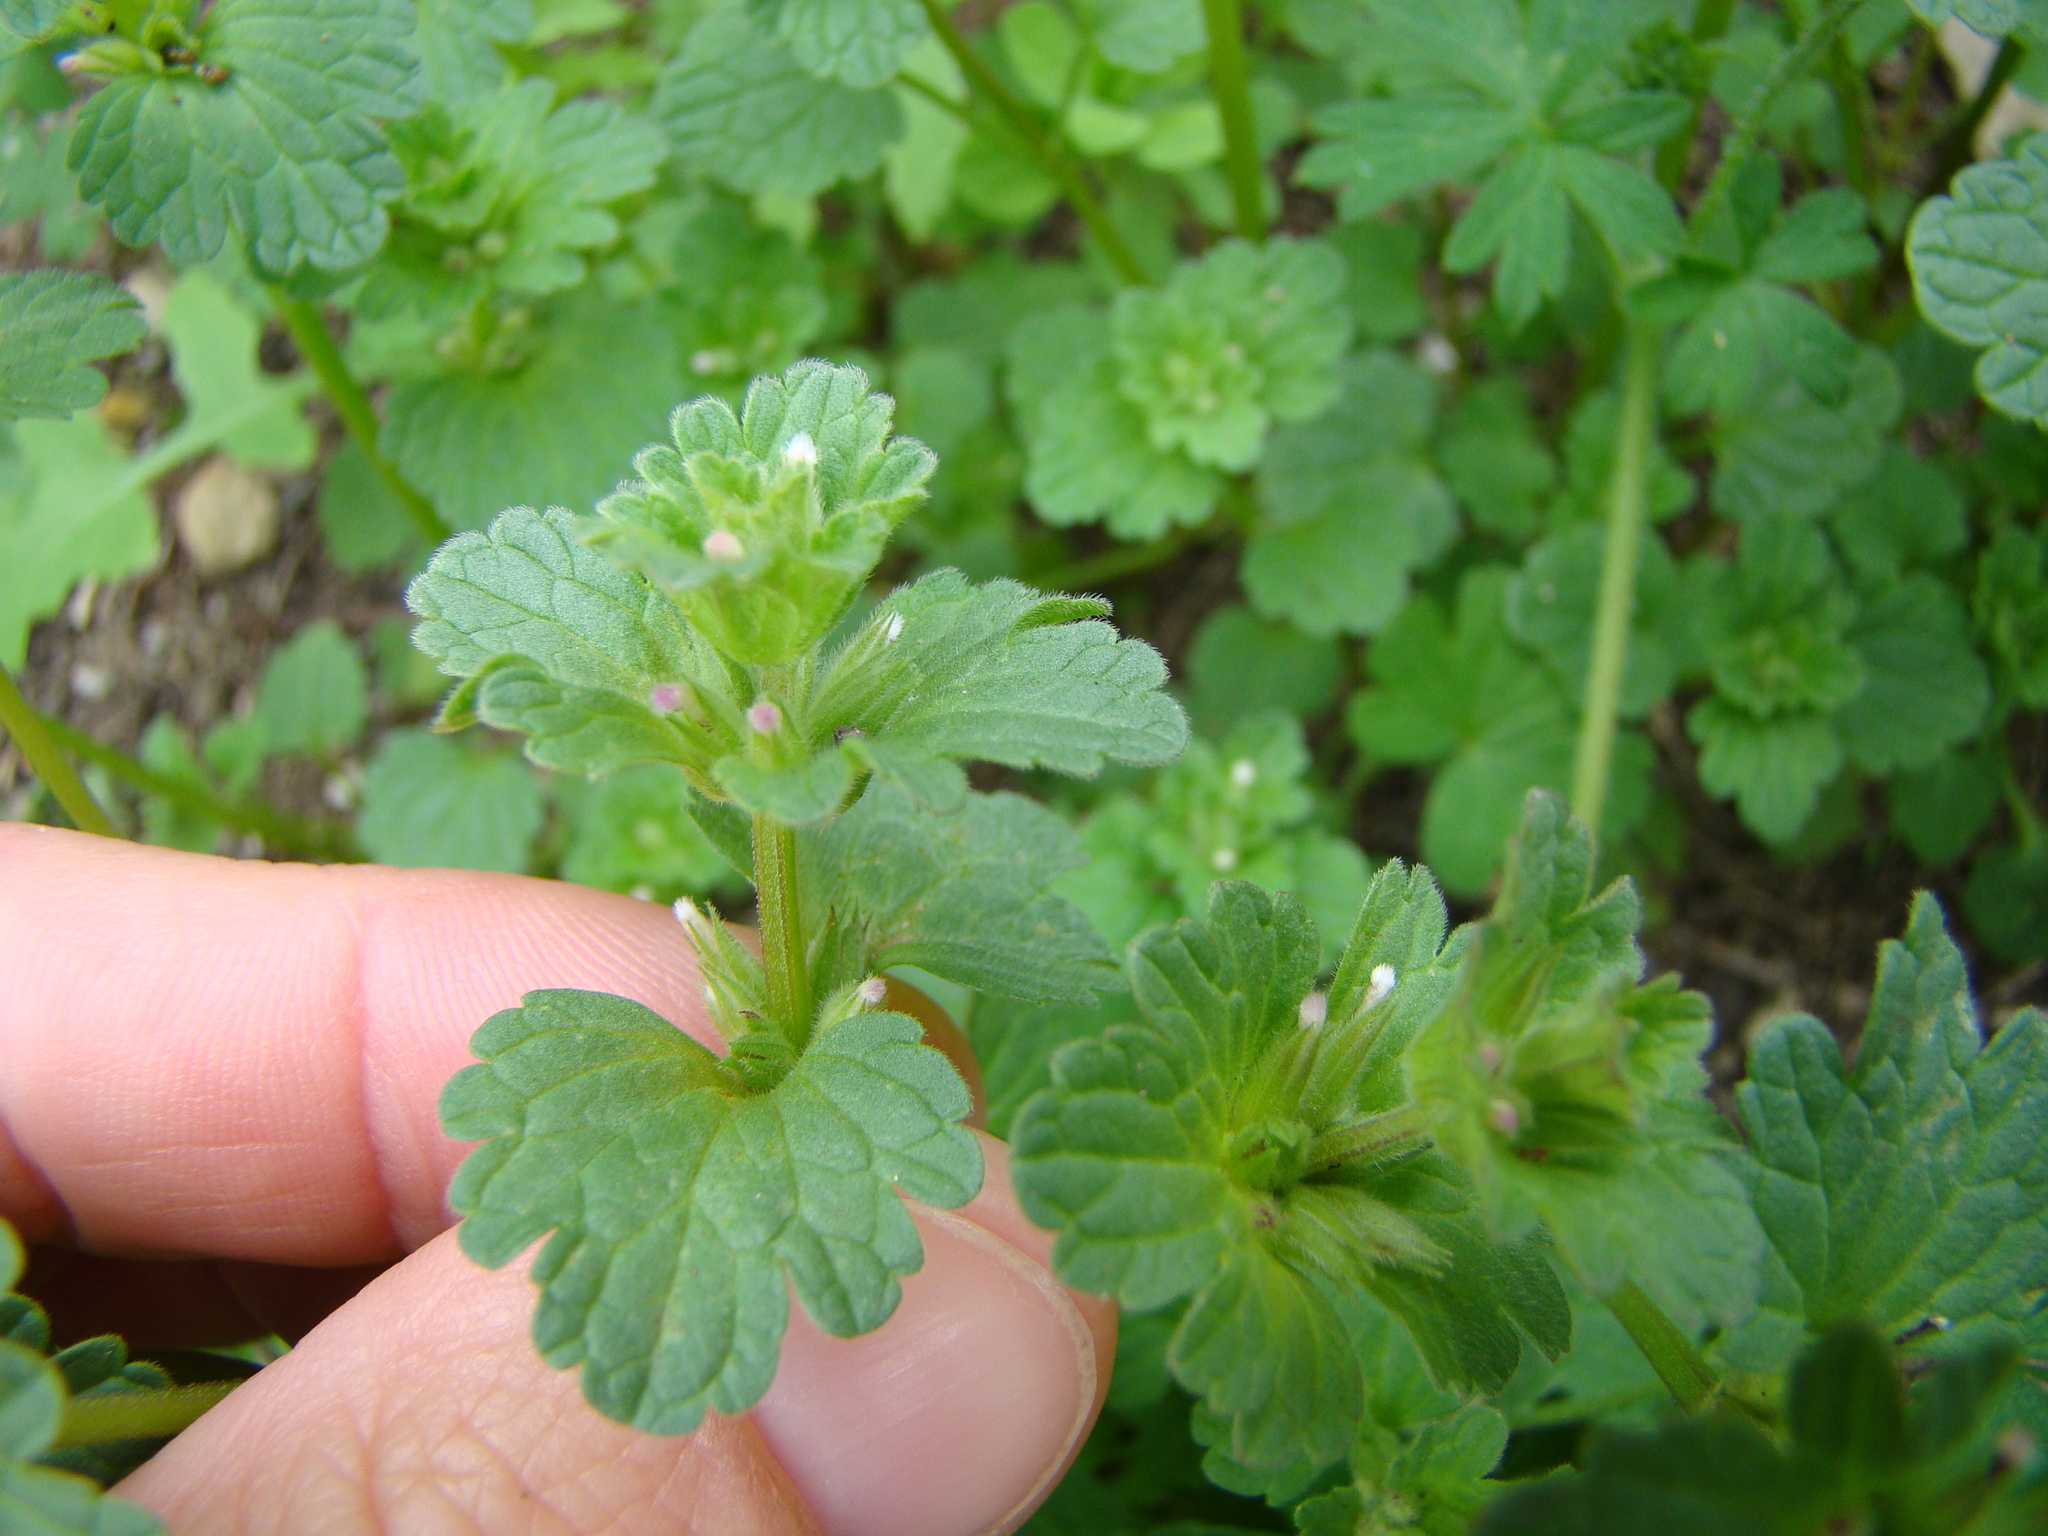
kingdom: Plantae
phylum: Tracheophyta
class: Magnoliopsida
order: Lamiales
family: Lamiaceae
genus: Lamium
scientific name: Lamium amplexicaule
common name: Henbit dead-nettle
